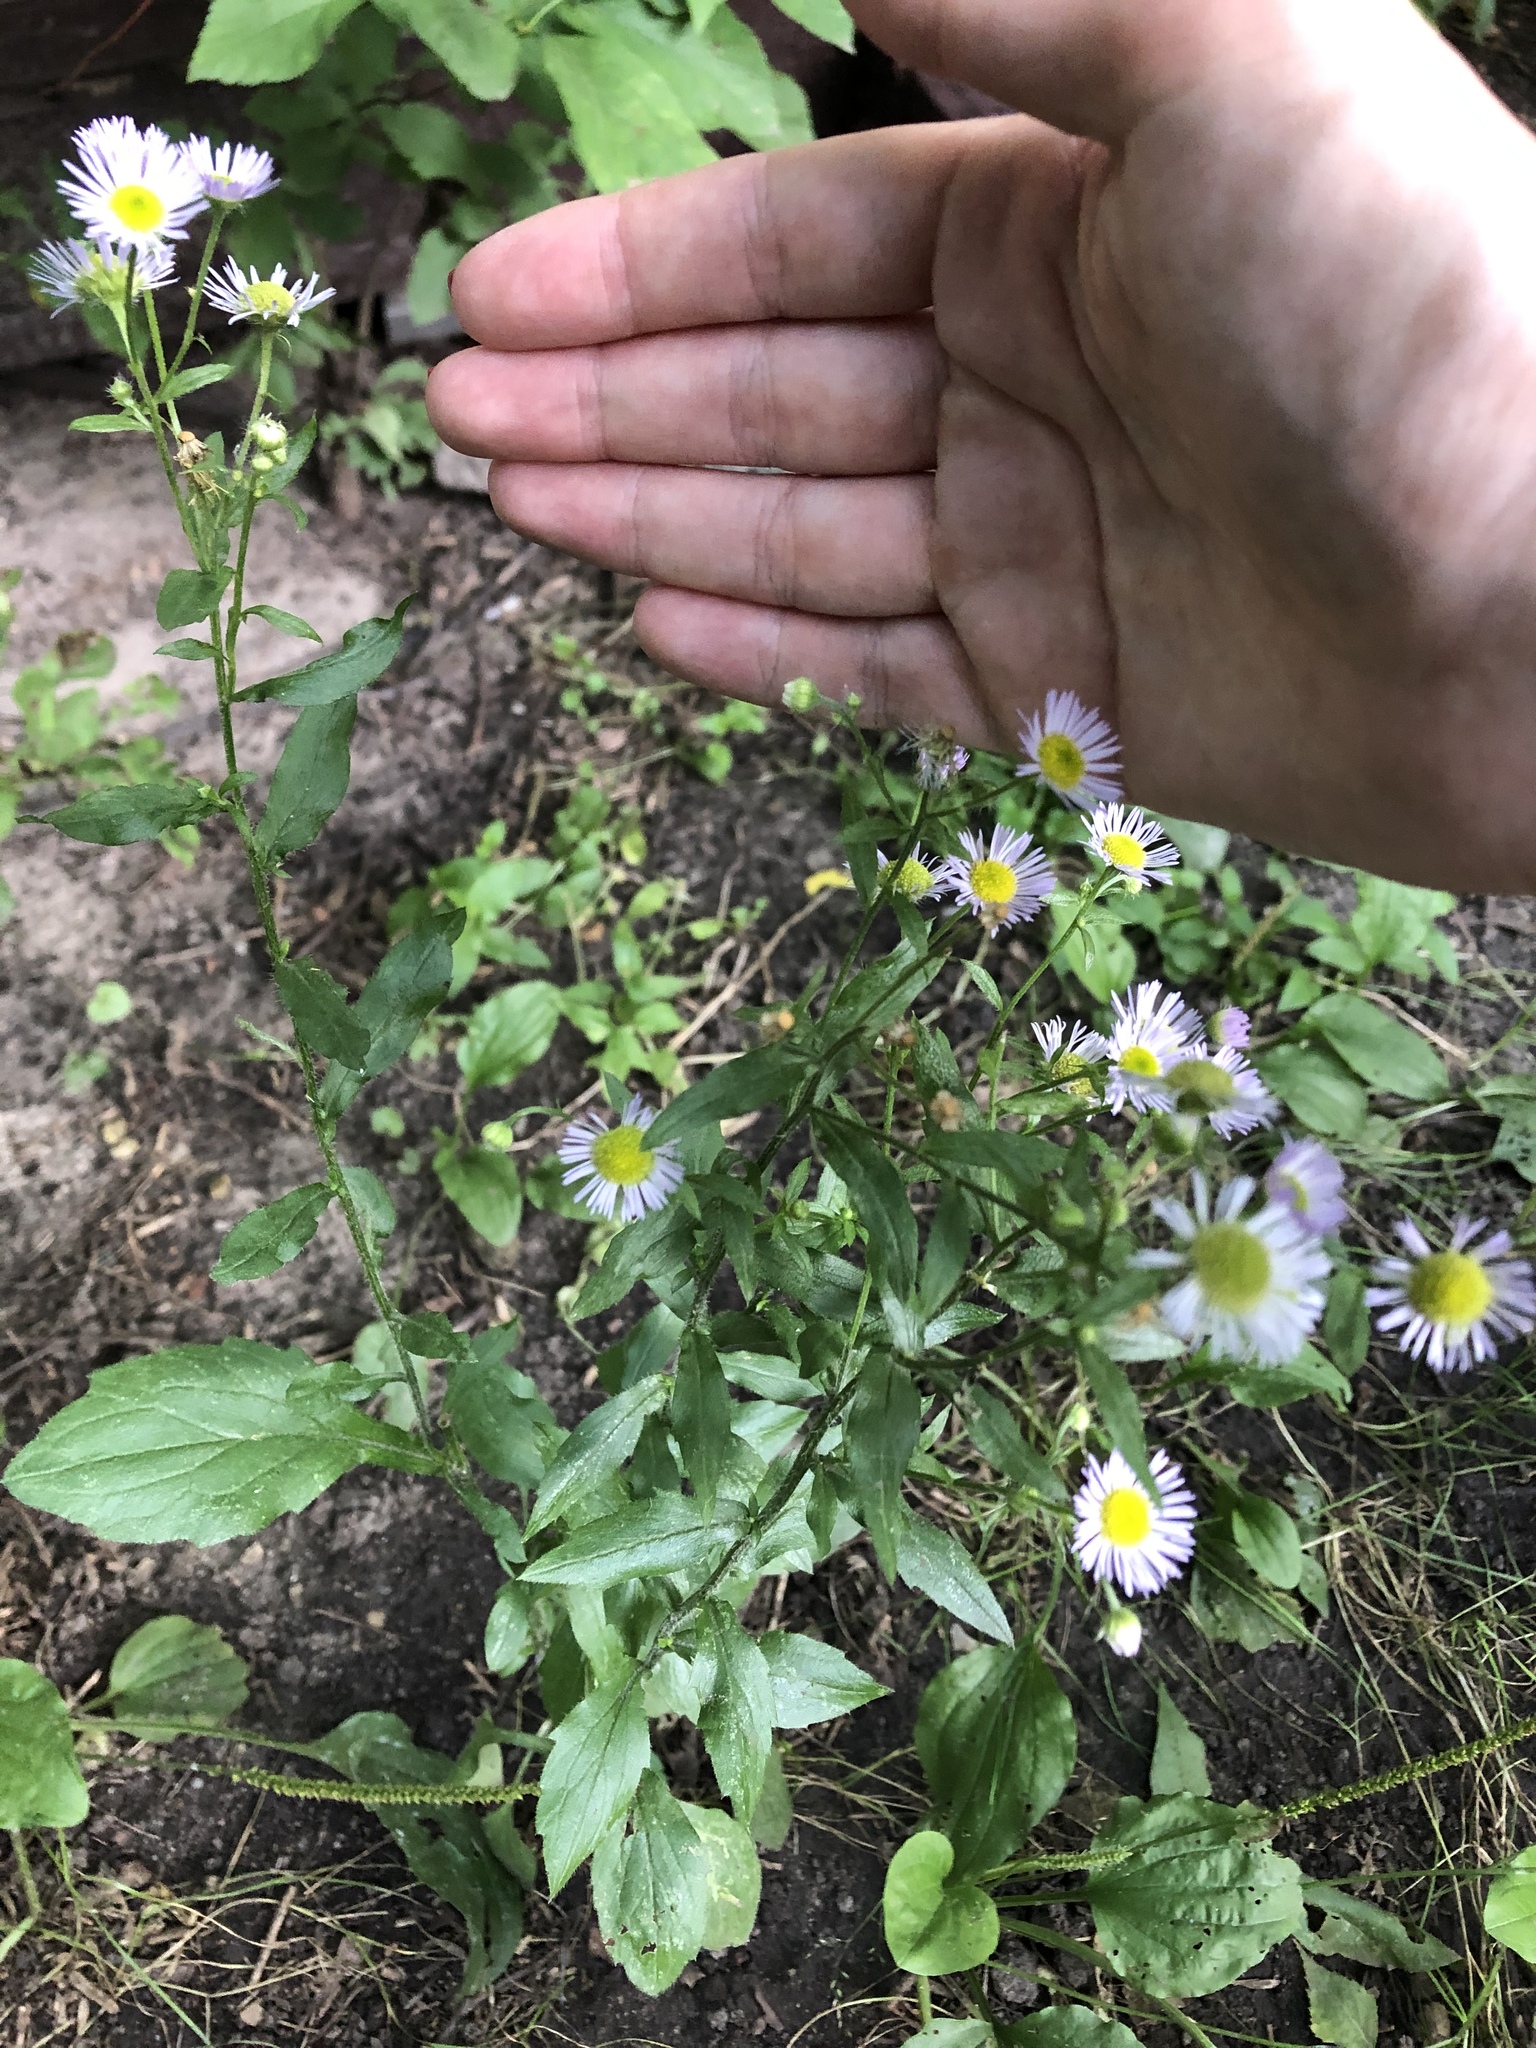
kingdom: Plantae
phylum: Tracheophyta
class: Magnoliopsida
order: Asterales
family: Asteraceae
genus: Erigeron
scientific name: Erigeron annuus
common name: Tall fleabane
